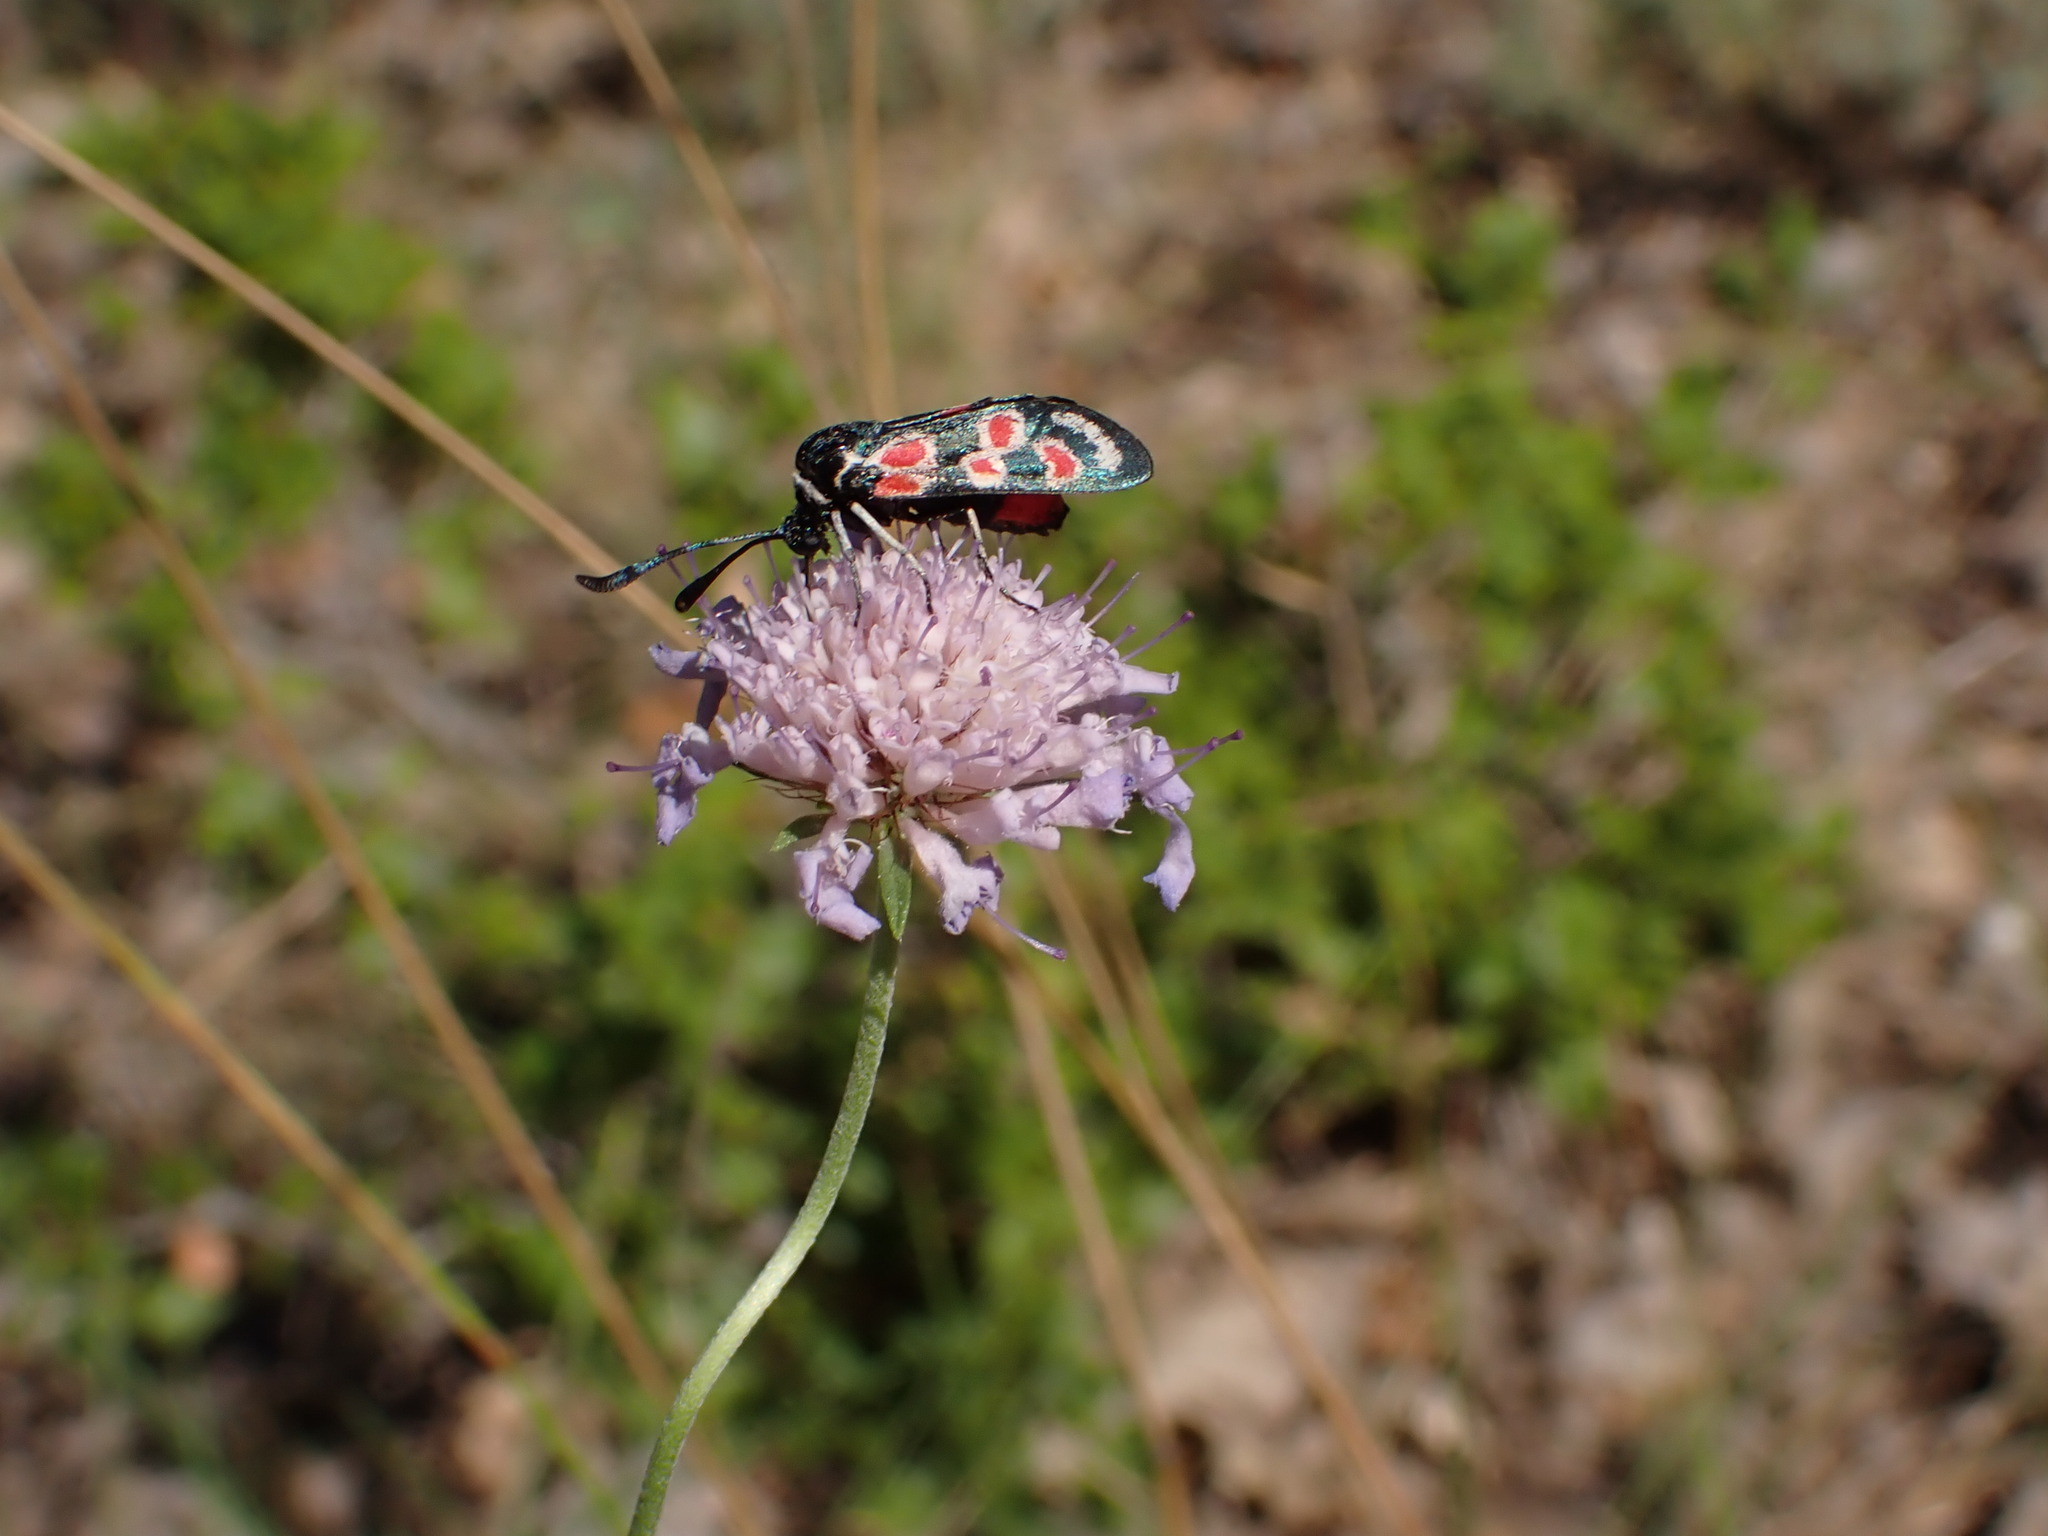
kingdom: Animalia
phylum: Arthropoda
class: Insecta
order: Lepidoptera
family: Zygaenidae
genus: Zygaena
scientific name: Zygaena occitanica
